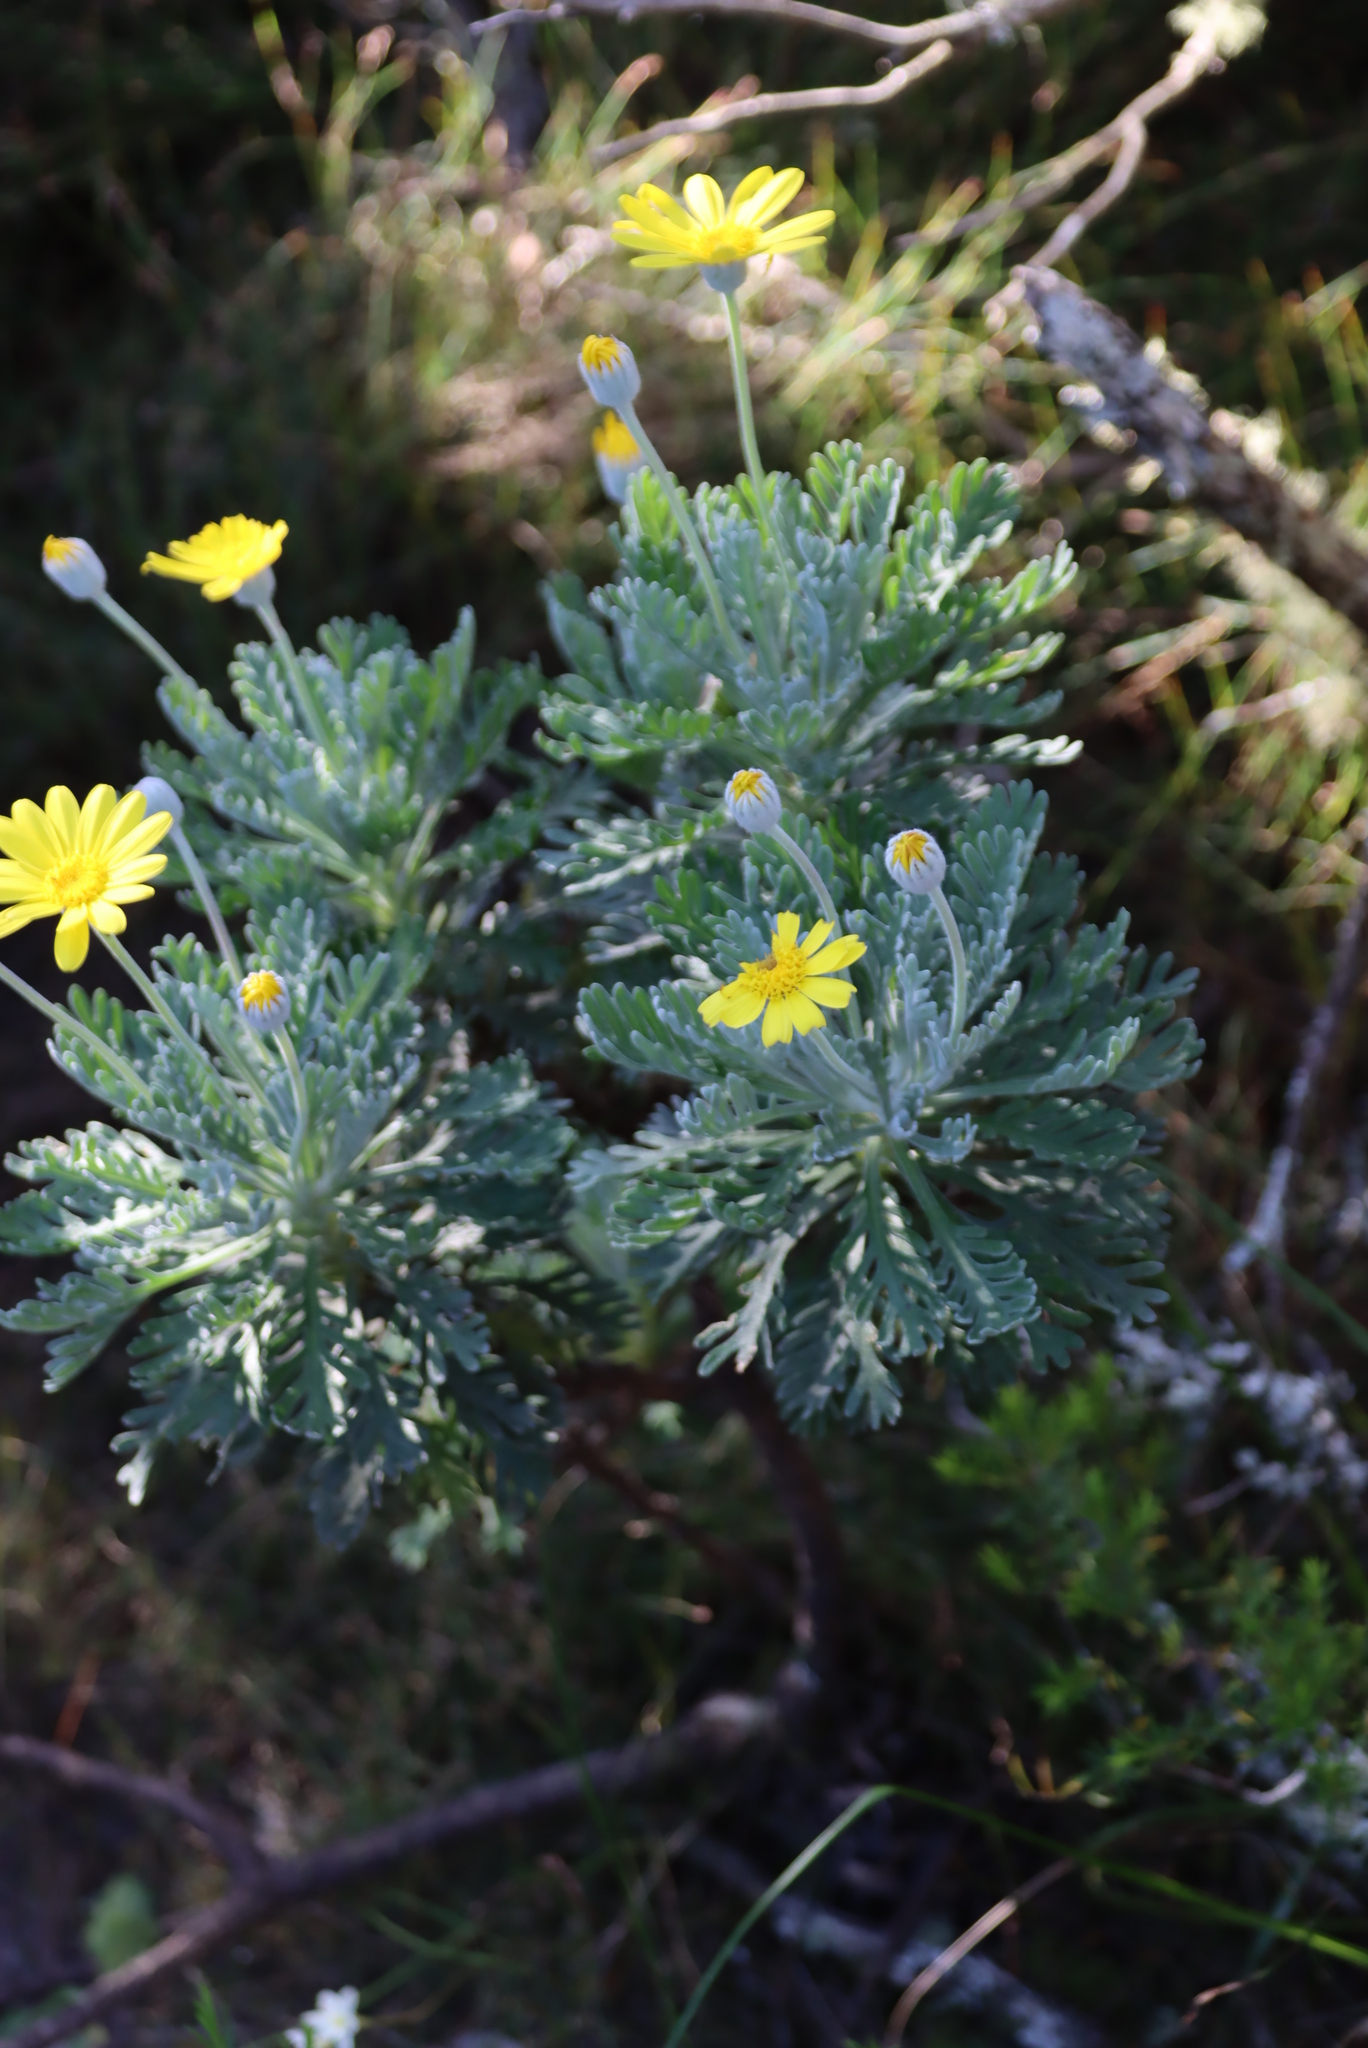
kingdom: Plantae
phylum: Tracheophyta
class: Magnoliopsida
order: Asterales
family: Asteraceae
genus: Euryops
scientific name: Euryops pectinatus
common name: Gray-leaf euryops
